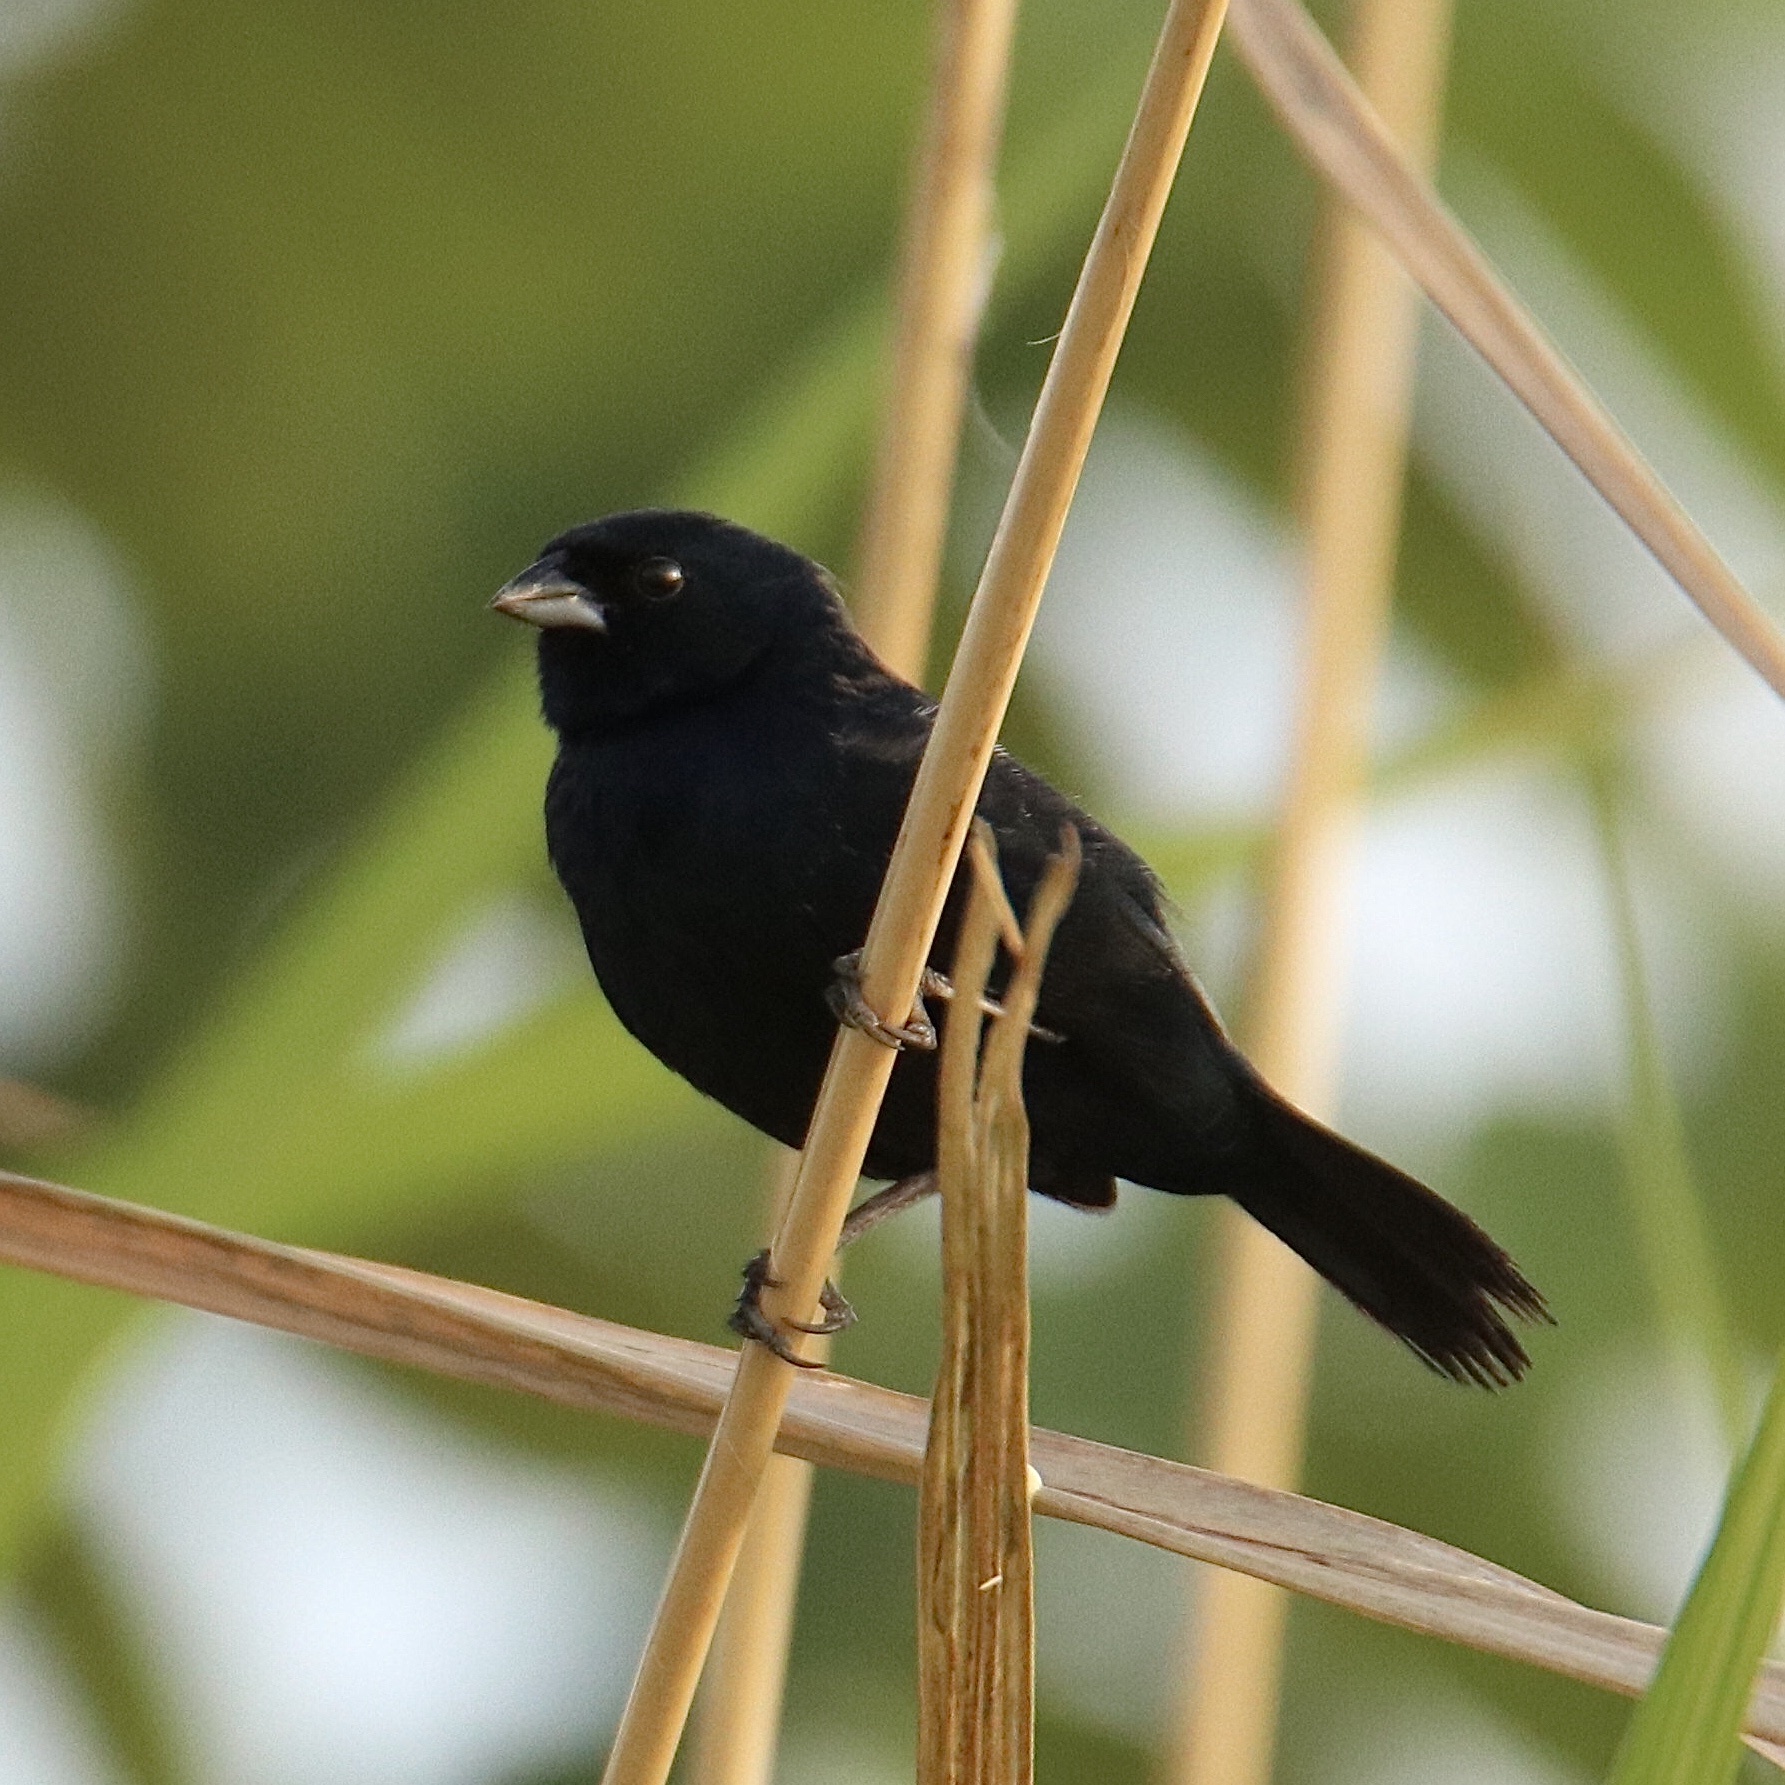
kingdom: Animalia
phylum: Chordata
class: Aves
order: Passeriformes
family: Thraupidae
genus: Volatinia
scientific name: Volatinia jacarina
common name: Blue-black grassquit
